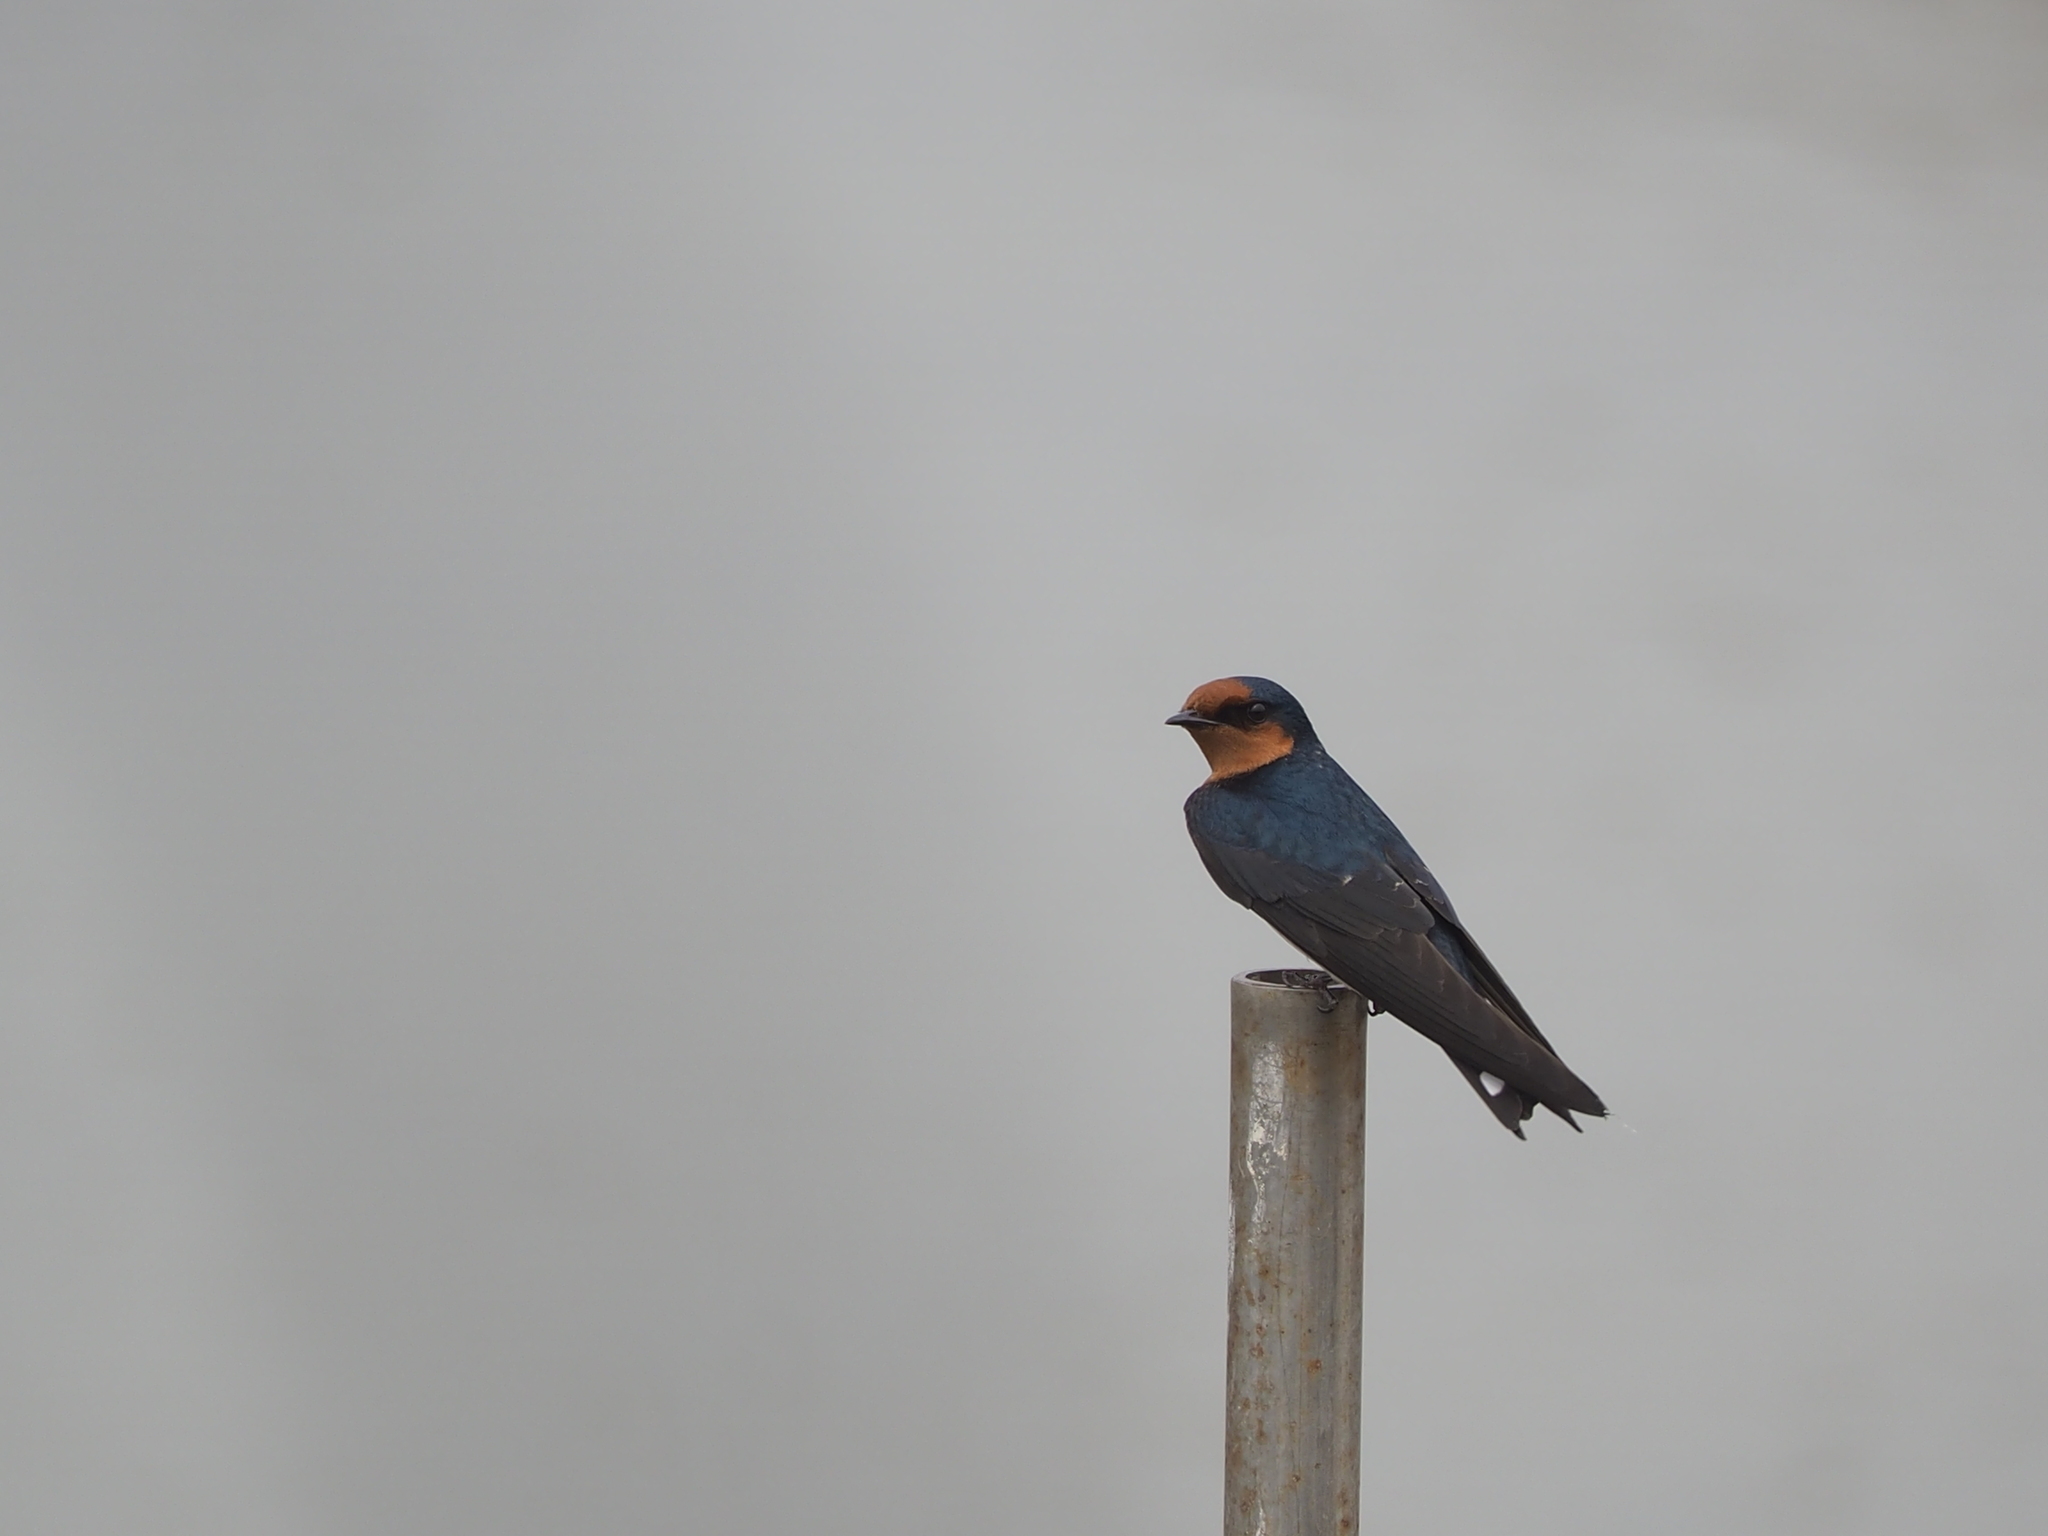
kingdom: Animalia
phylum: Chordata
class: Aves
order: Passeriformes
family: Hirundinidae
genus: Hirundo
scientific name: Hirundo tahitica
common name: Pacific swallow
